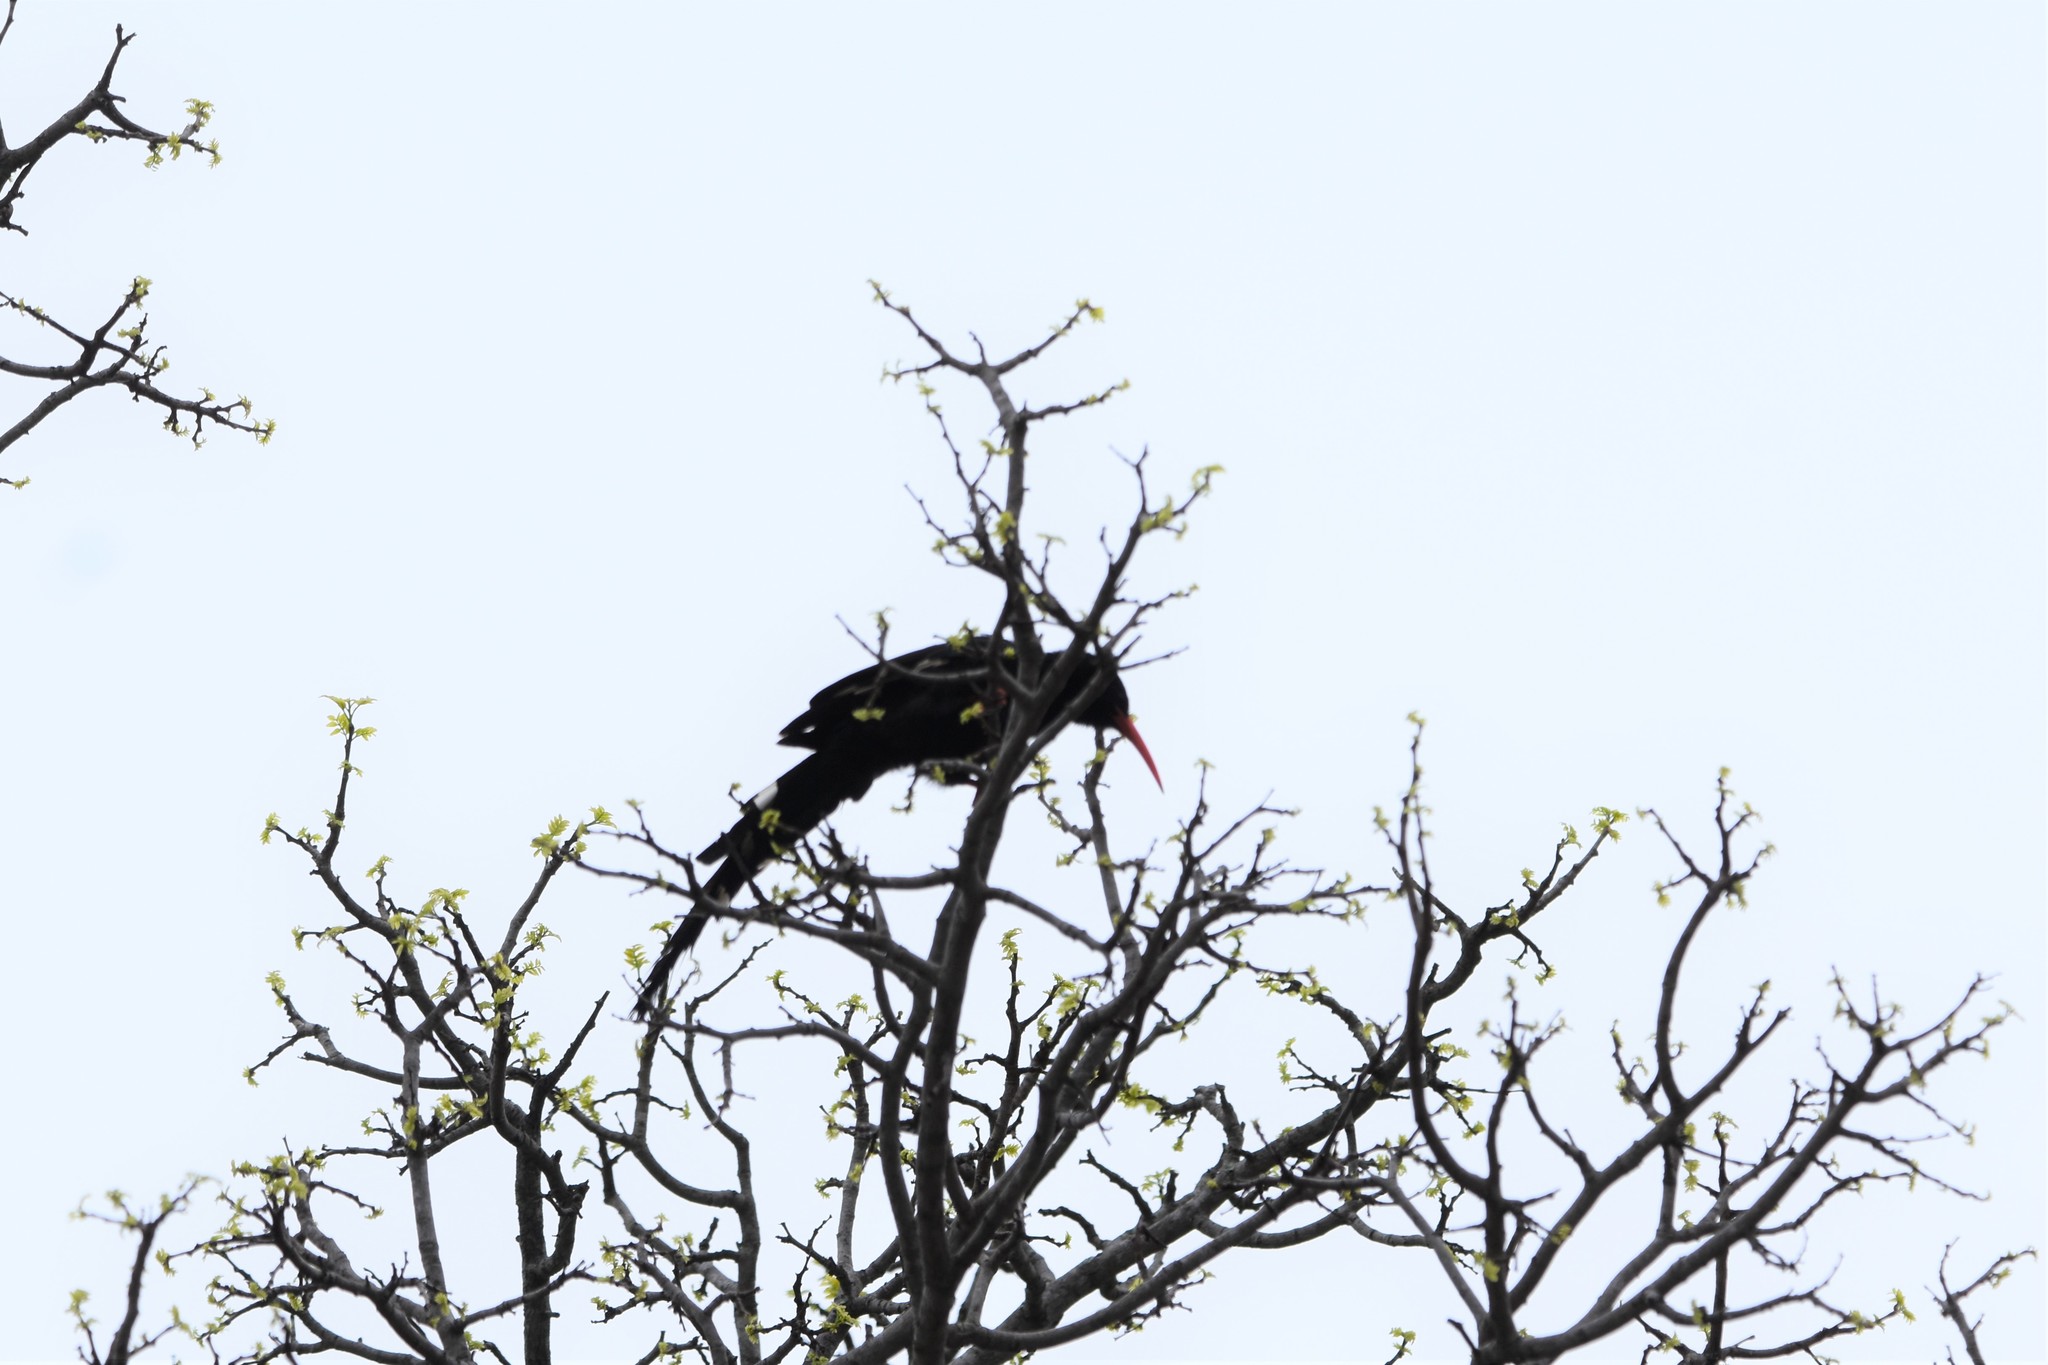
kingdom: Animalia
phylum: Chordata
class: Aves
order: Bucerotiformes
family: Phoeniculidae
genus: Phoeniculus
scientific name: Phoeniculus purpureus
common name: Green woodhoopoe
